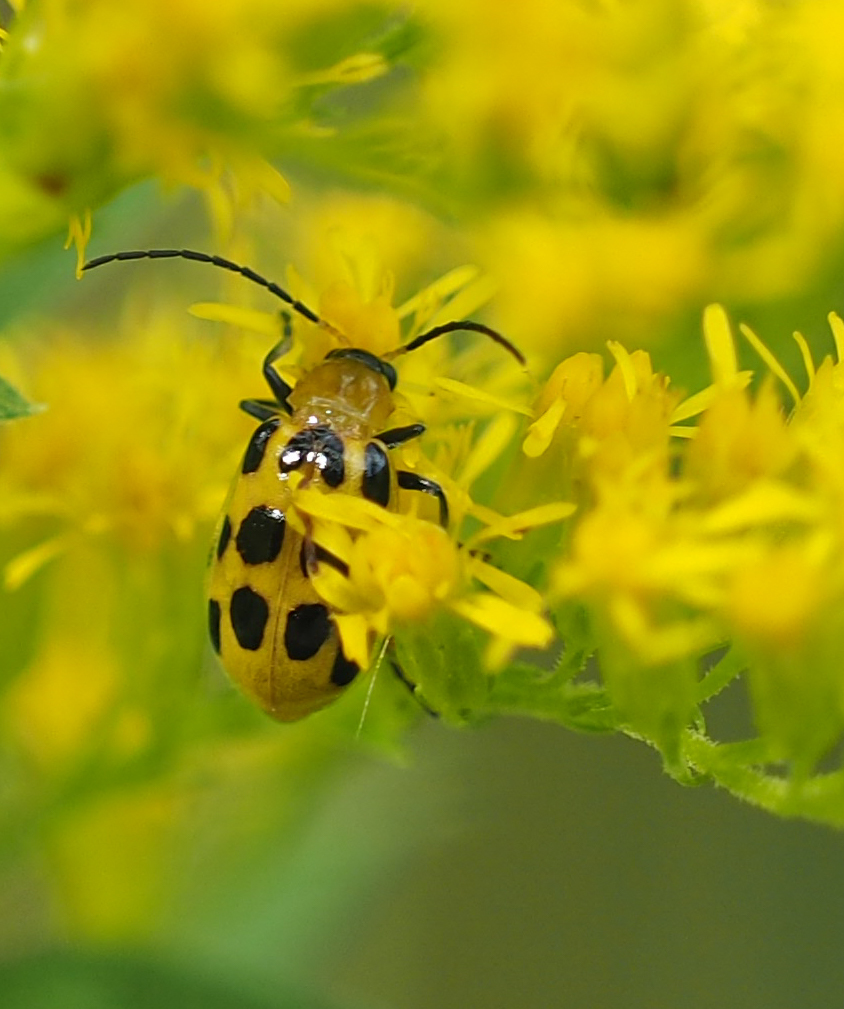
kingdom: Animalia
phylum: Arthropoda
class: Insecta
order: Coleoptera
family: Chrysomelidae
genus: Diabrotica
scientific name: Diabrotica undecimpunctata
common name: Spotted cucumber beetle
